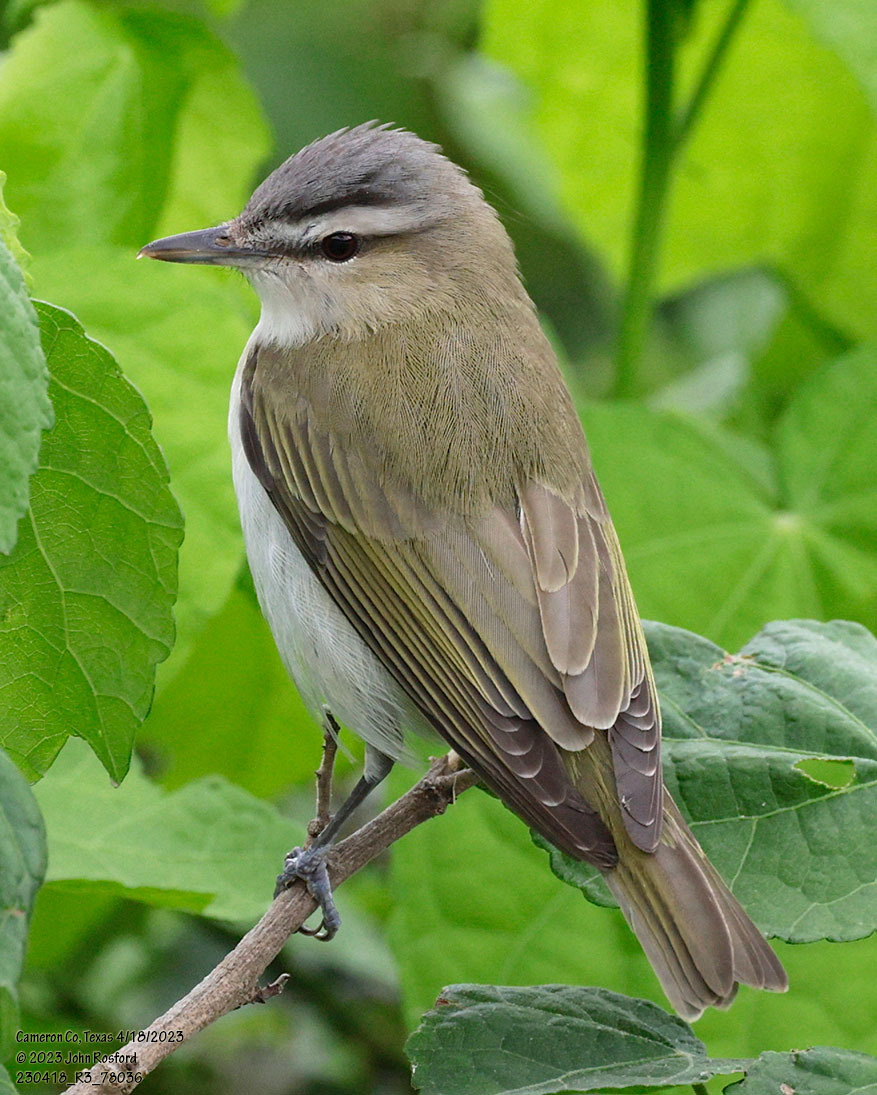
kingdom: Animalia
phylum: Chordata
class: Aves
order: Passeriformes
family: Vireonidae
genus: Vireo
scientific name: Vireo olivaceus
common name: Red-eyed vireo
